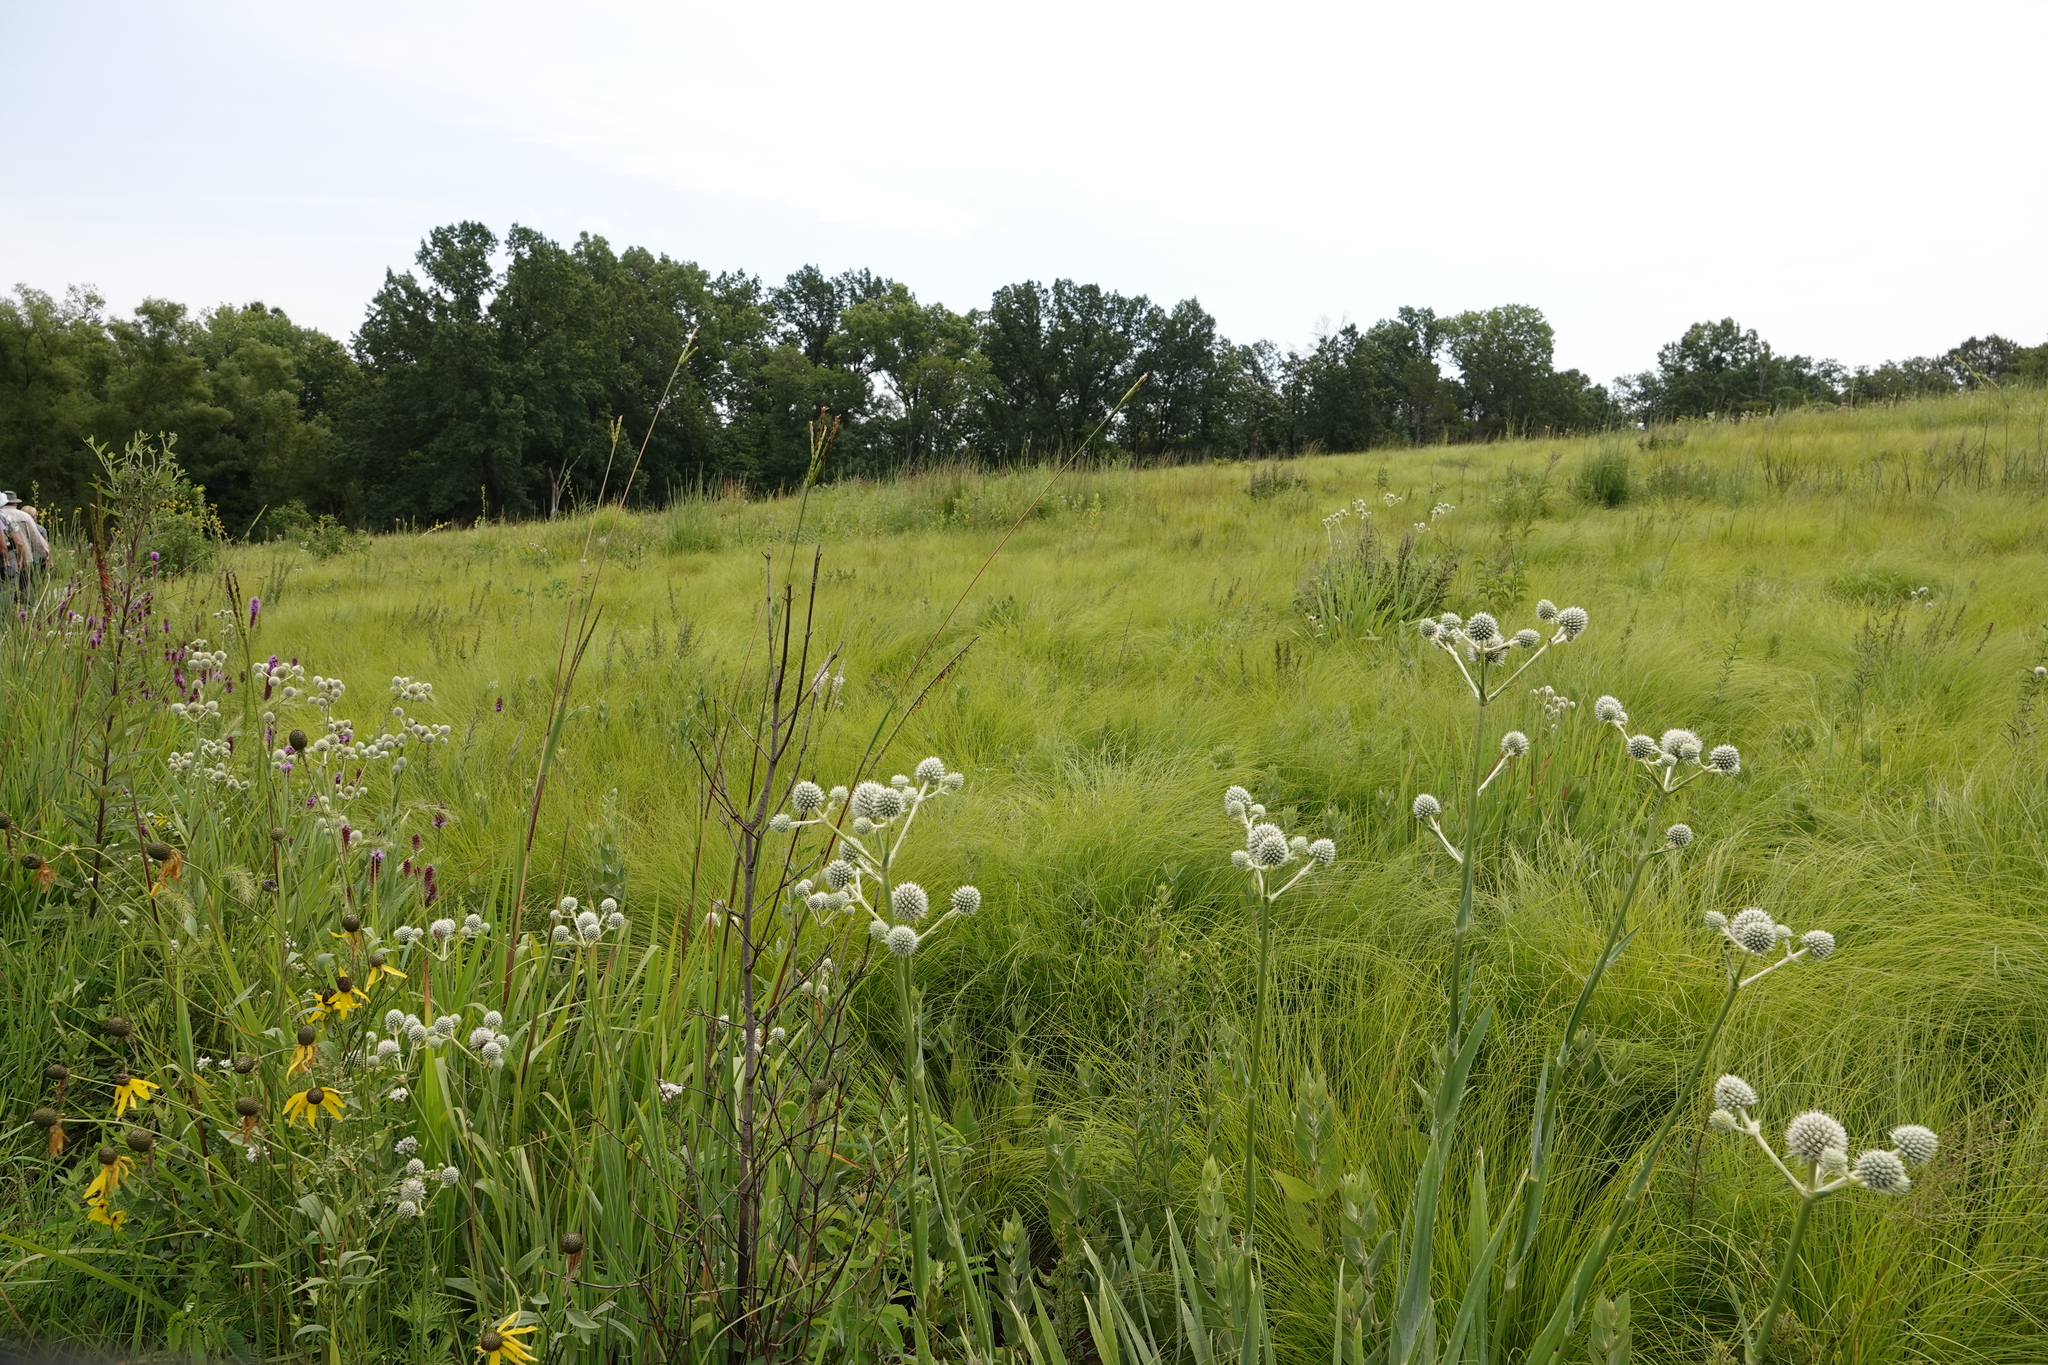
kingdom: Plantae
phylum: Tracheophyta
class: Magnoliopsida
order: Apiales
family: Apiaceae
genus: Eryngium
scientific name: Eryngium yuccifolium
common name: Button eryngo
